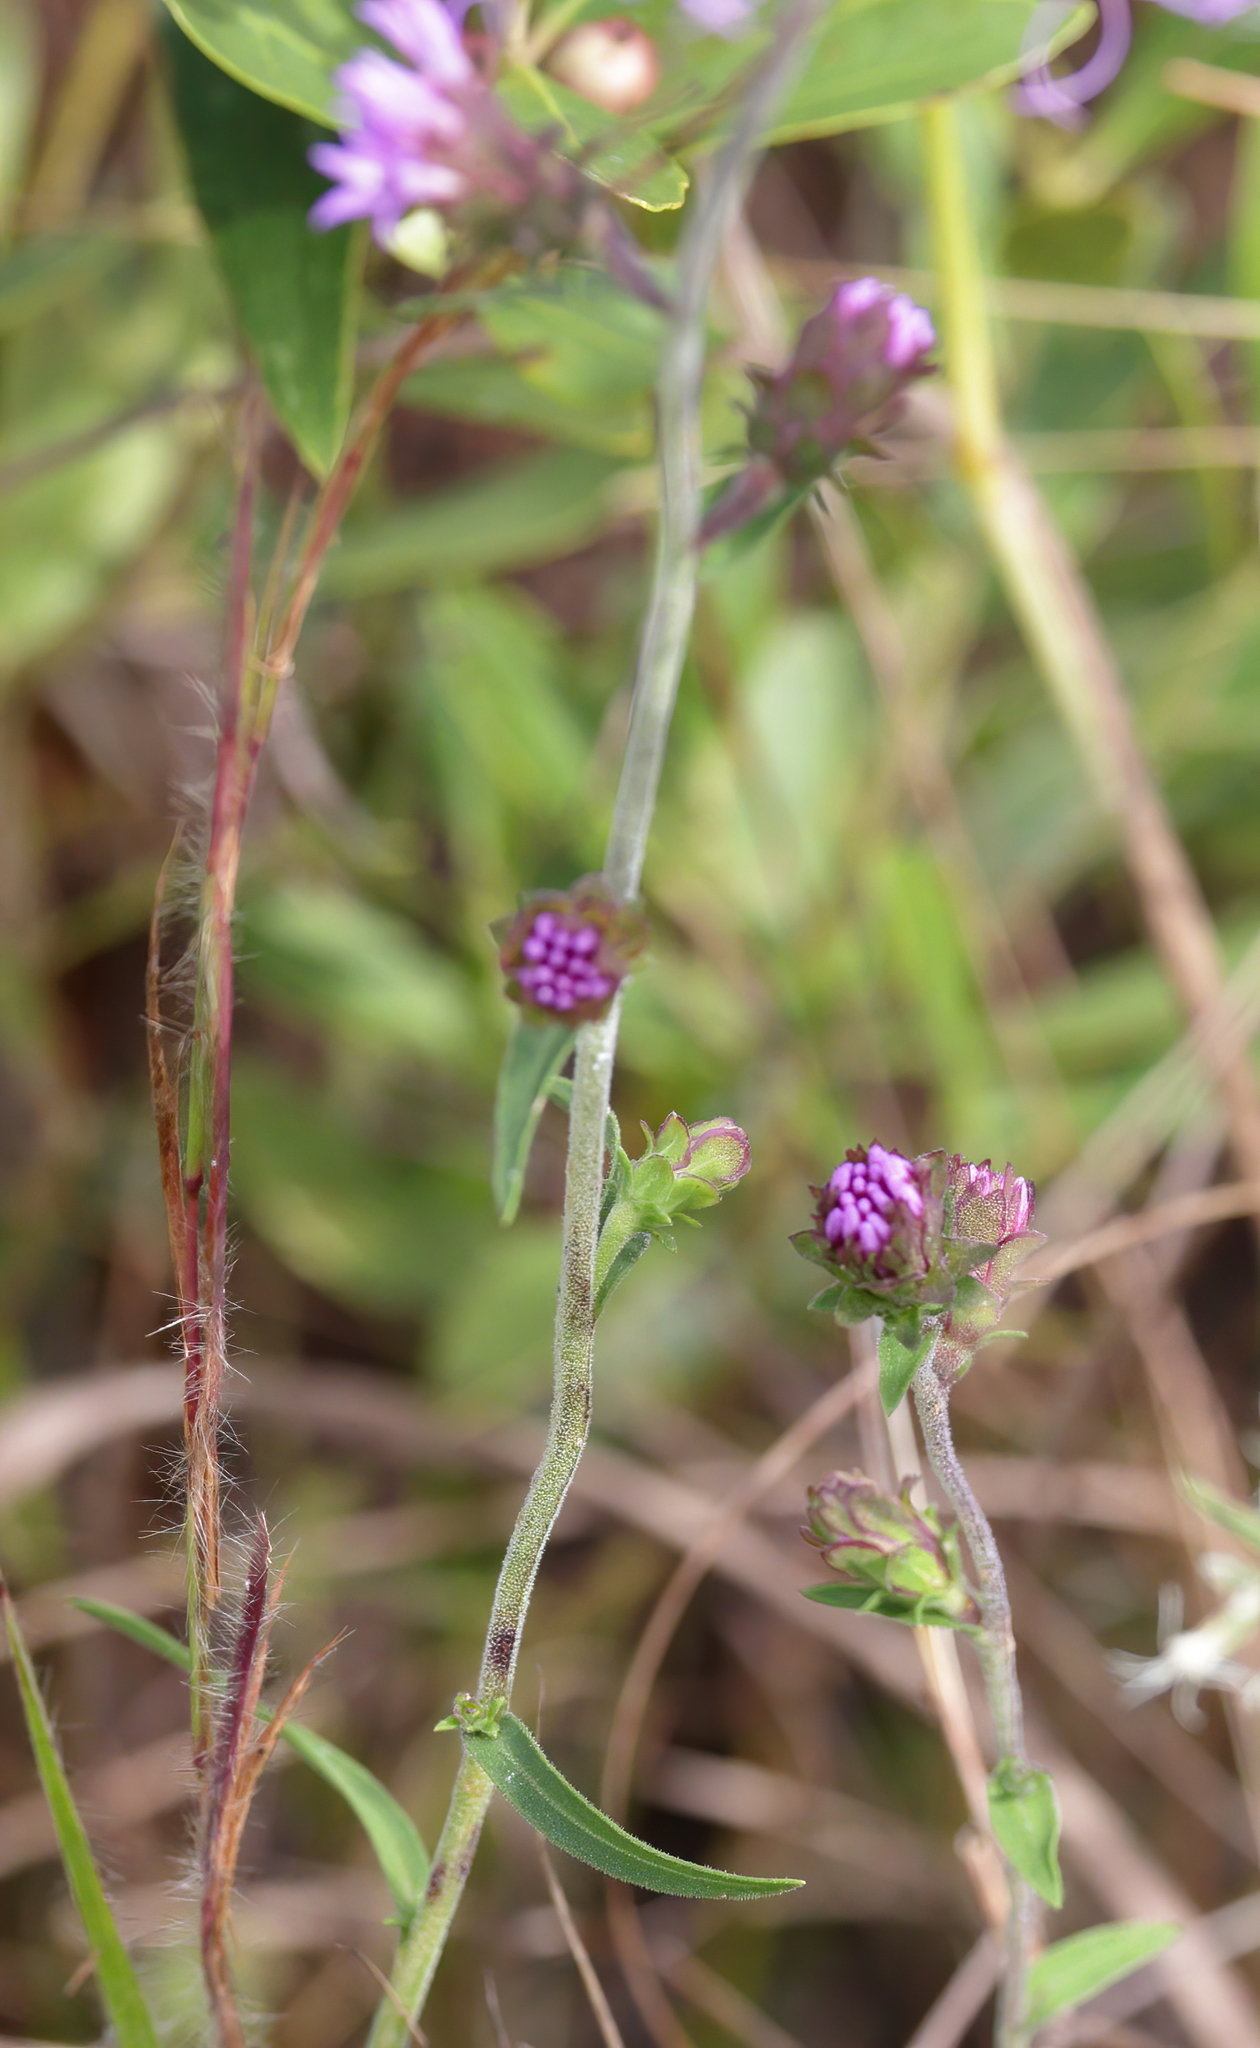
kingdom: Plantae
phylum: Tracheophyta
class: Magnoliopsida
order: Asterales
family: Asteraceae
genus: Liatris
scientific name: Liatris squarrulosa
